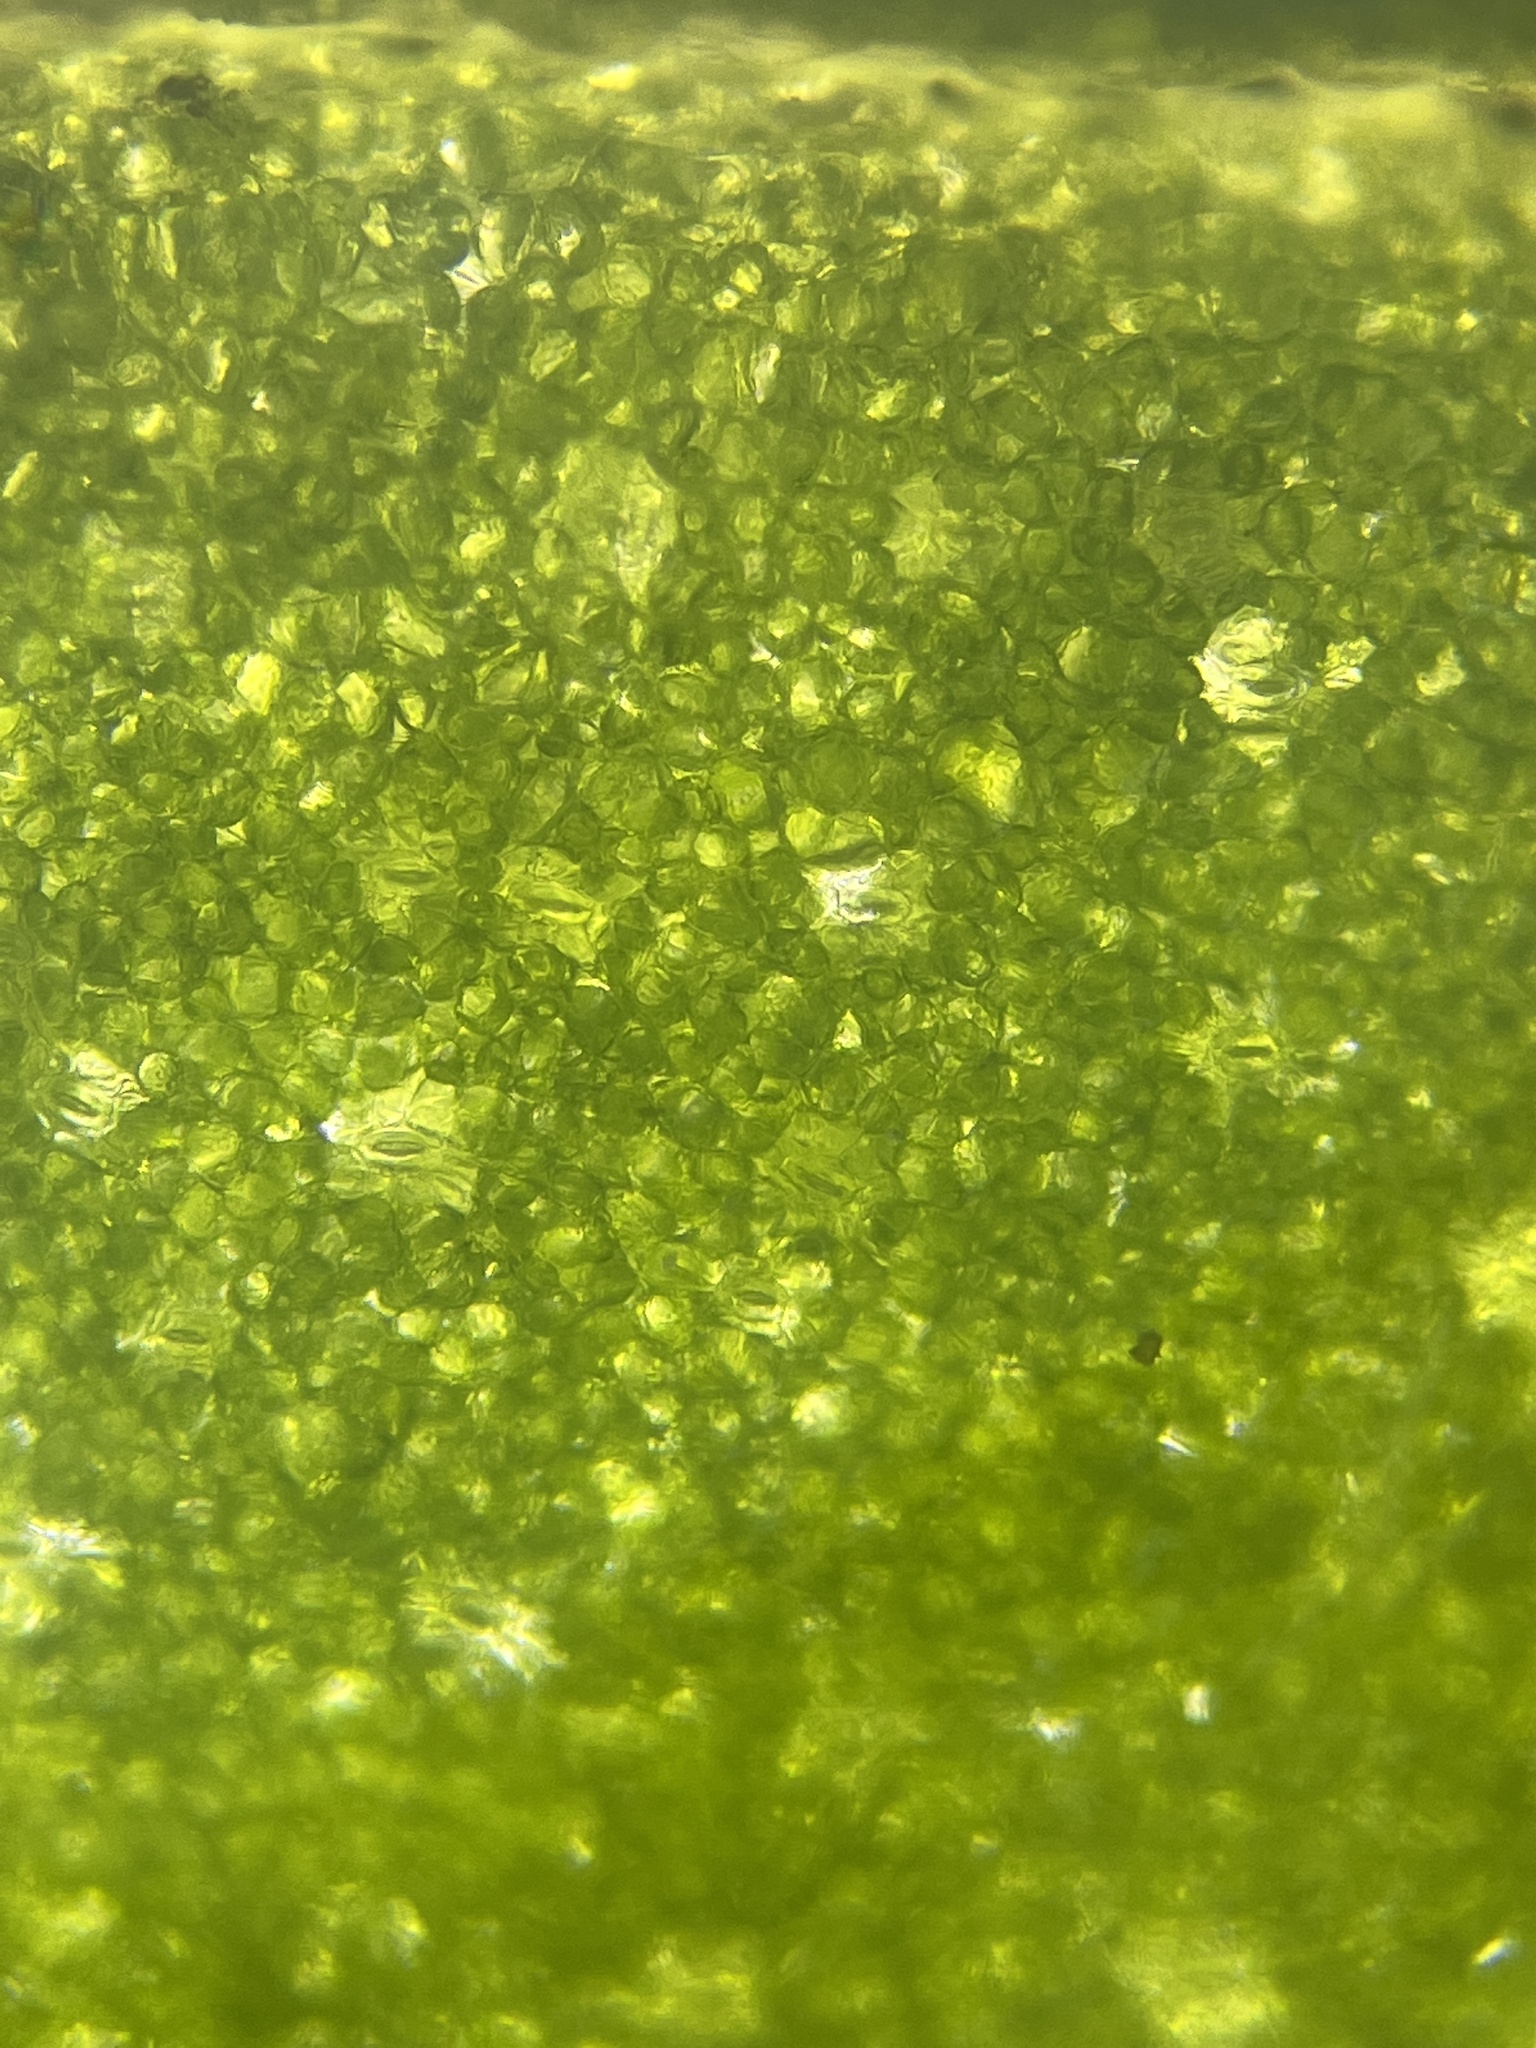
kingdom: Plantae
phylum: Tracheophyta
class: Magnoliopsida
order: Ranunculales
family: Ranunculaceae
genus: Ficaria
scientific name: Ficaria verna
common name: Lesser celandine
